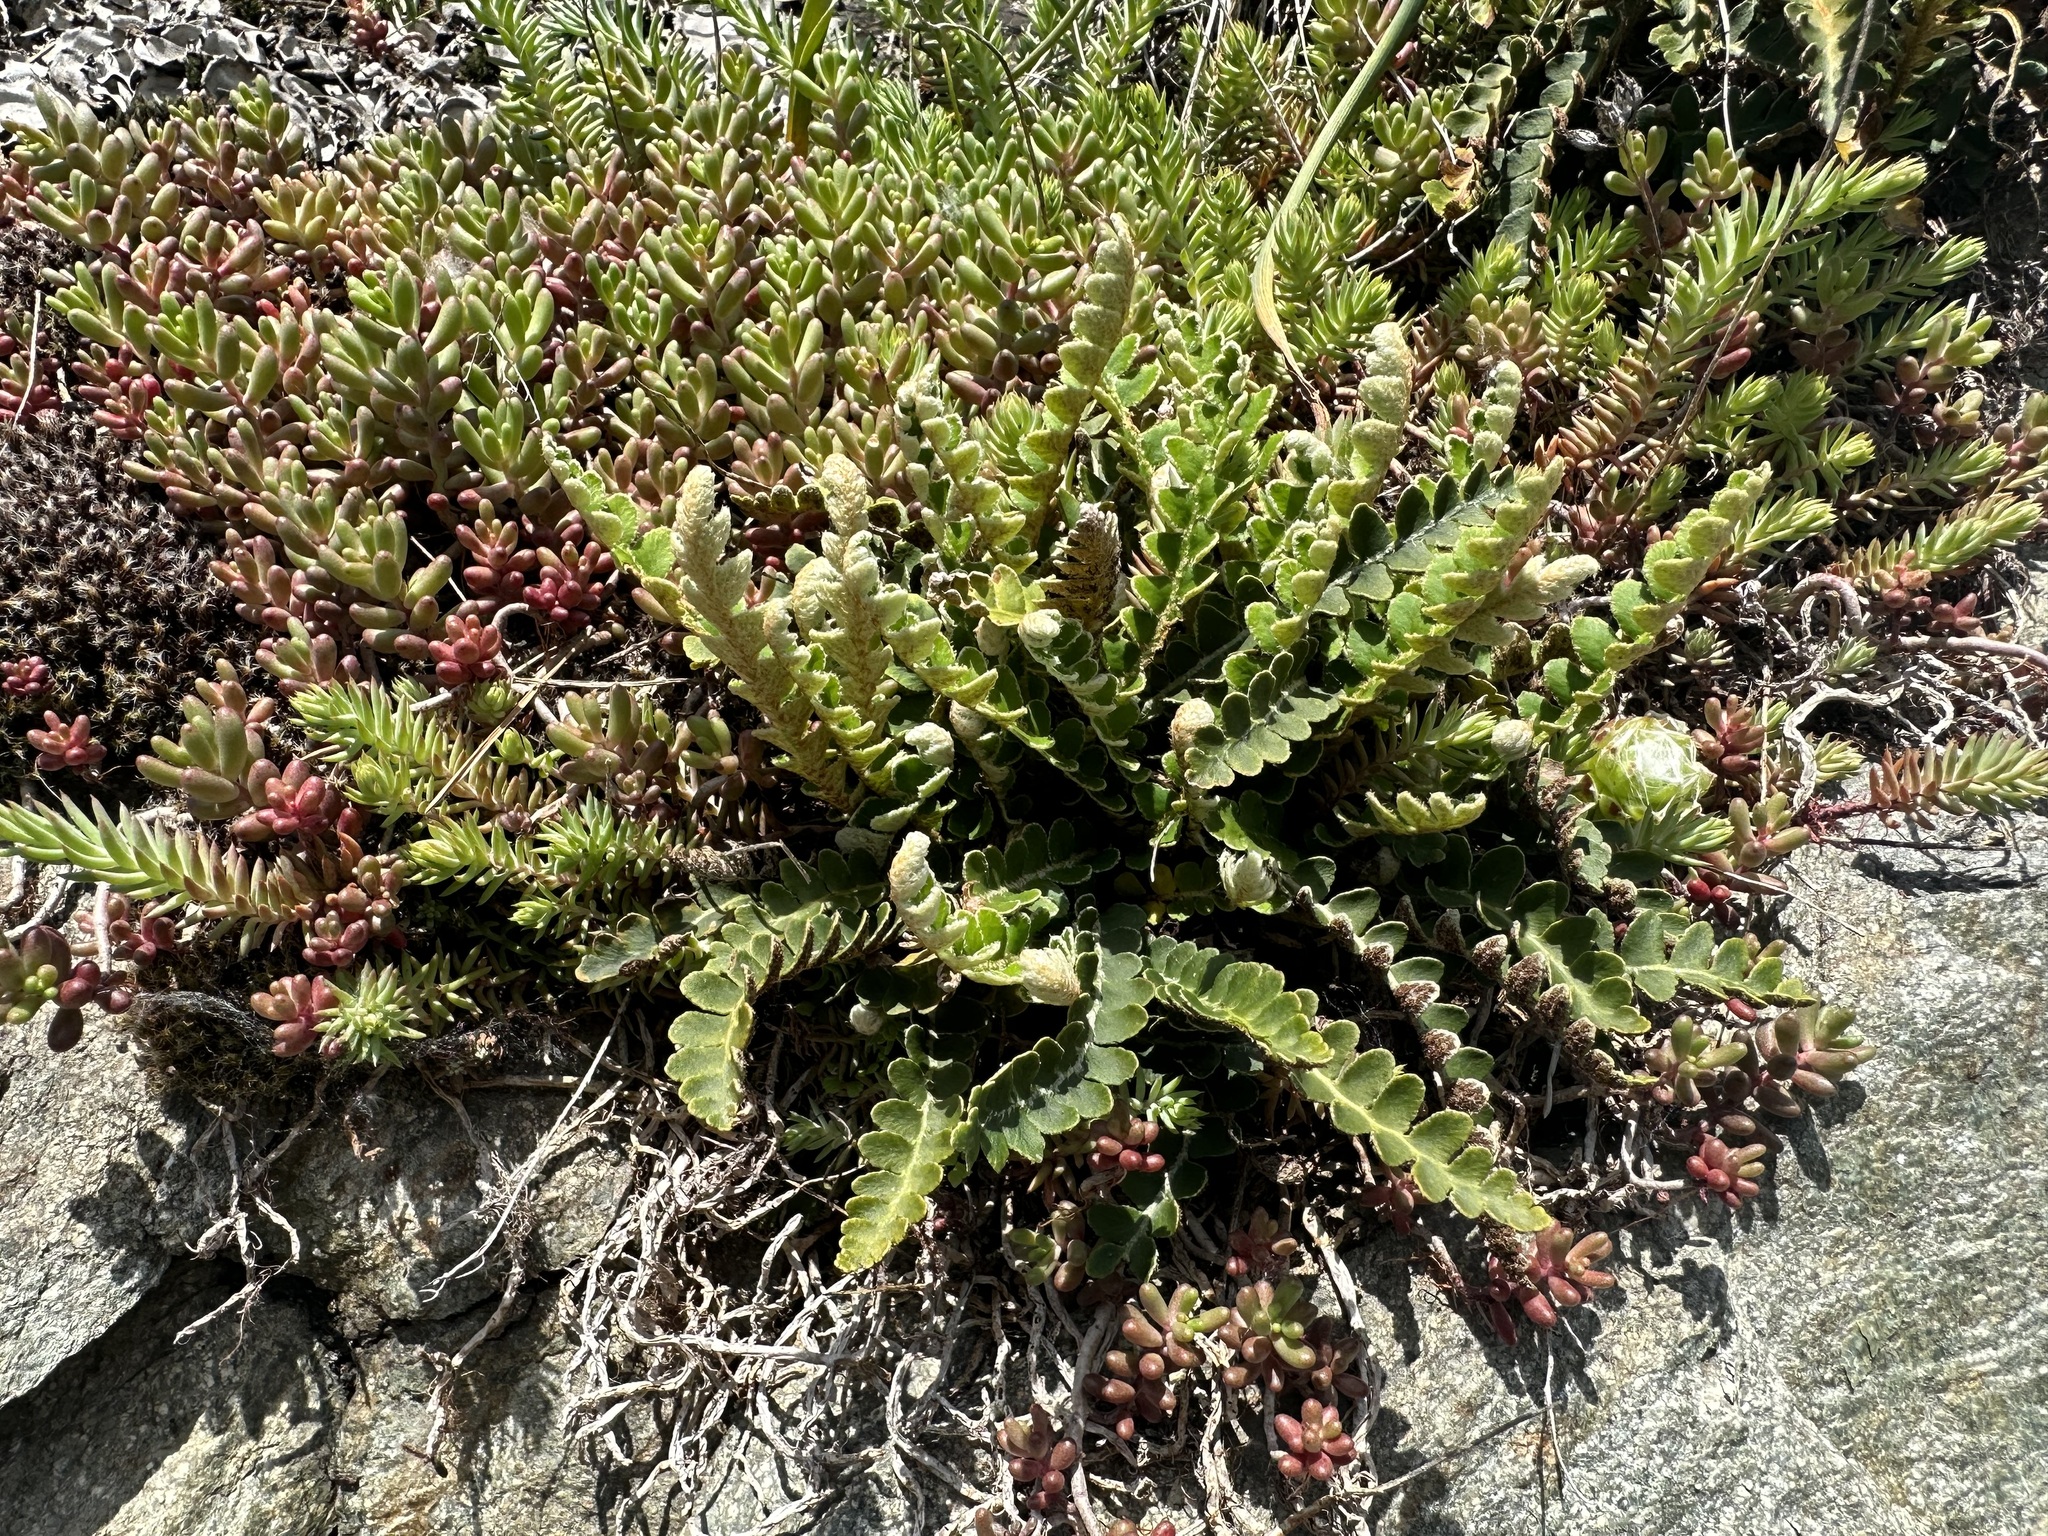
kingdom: Plantae
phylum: Tracheophyta
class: Polypodiopsida
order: Polypodiales
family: Aspleniaceae
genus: Asplenium
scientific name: Asplenium ceterach
